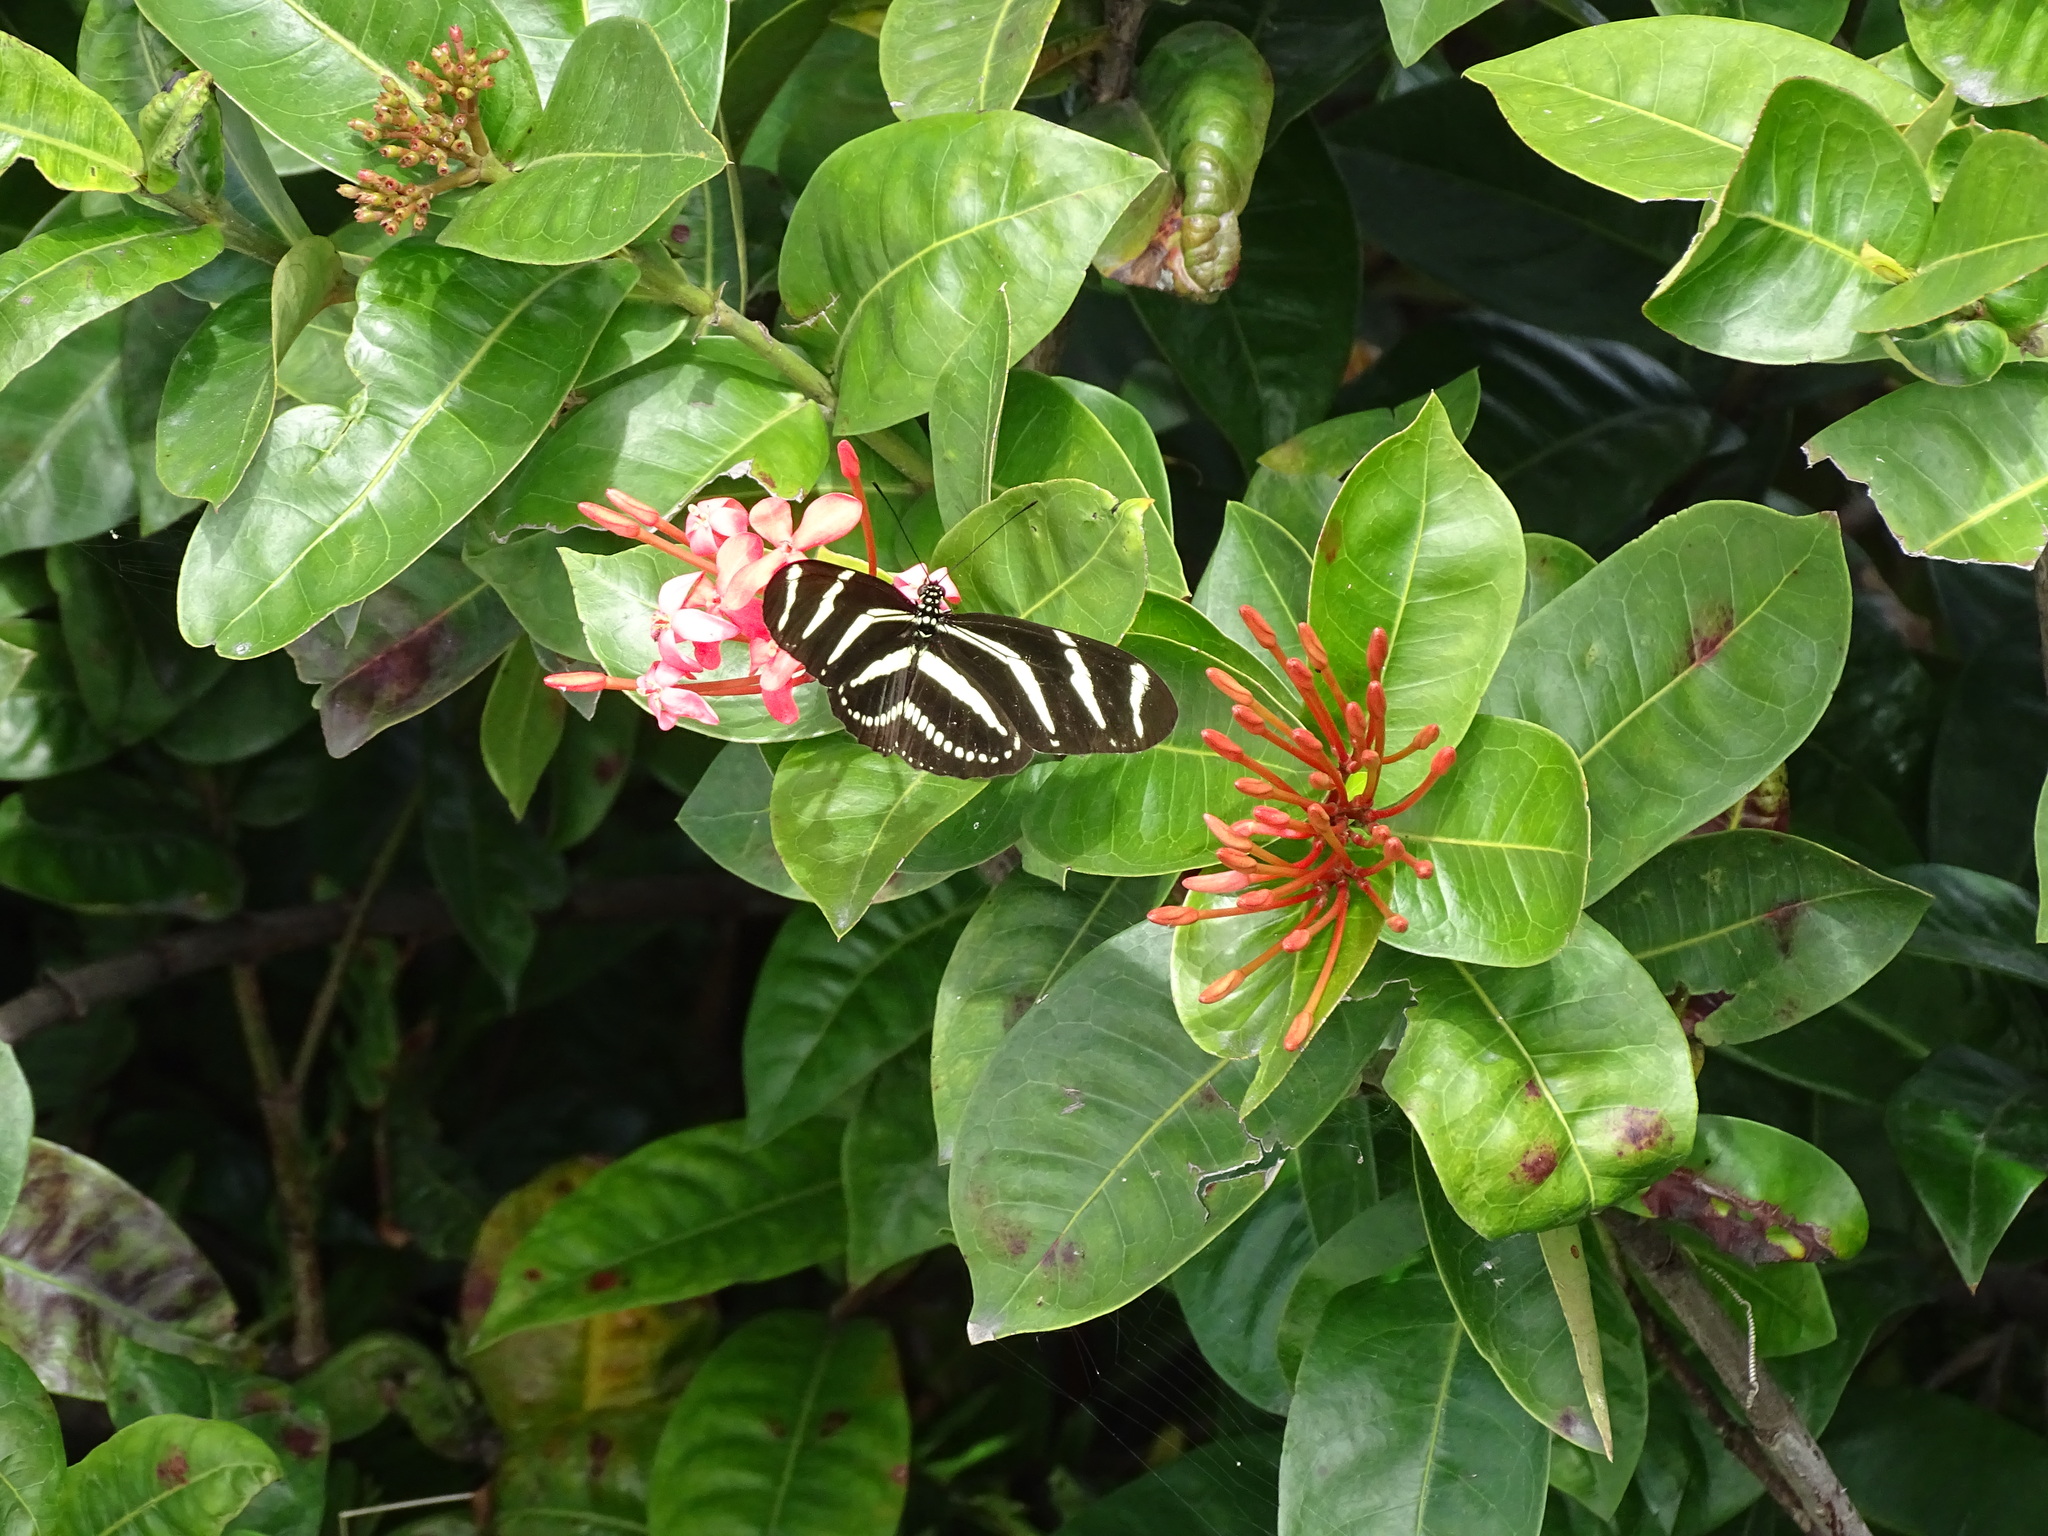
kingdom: Animalia
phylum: Arthropoda
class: Insecta
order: Lepidoptera
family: Nymphalidae
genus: Heliconius
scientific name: Heliconius charithonia
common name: Zebra long wing
